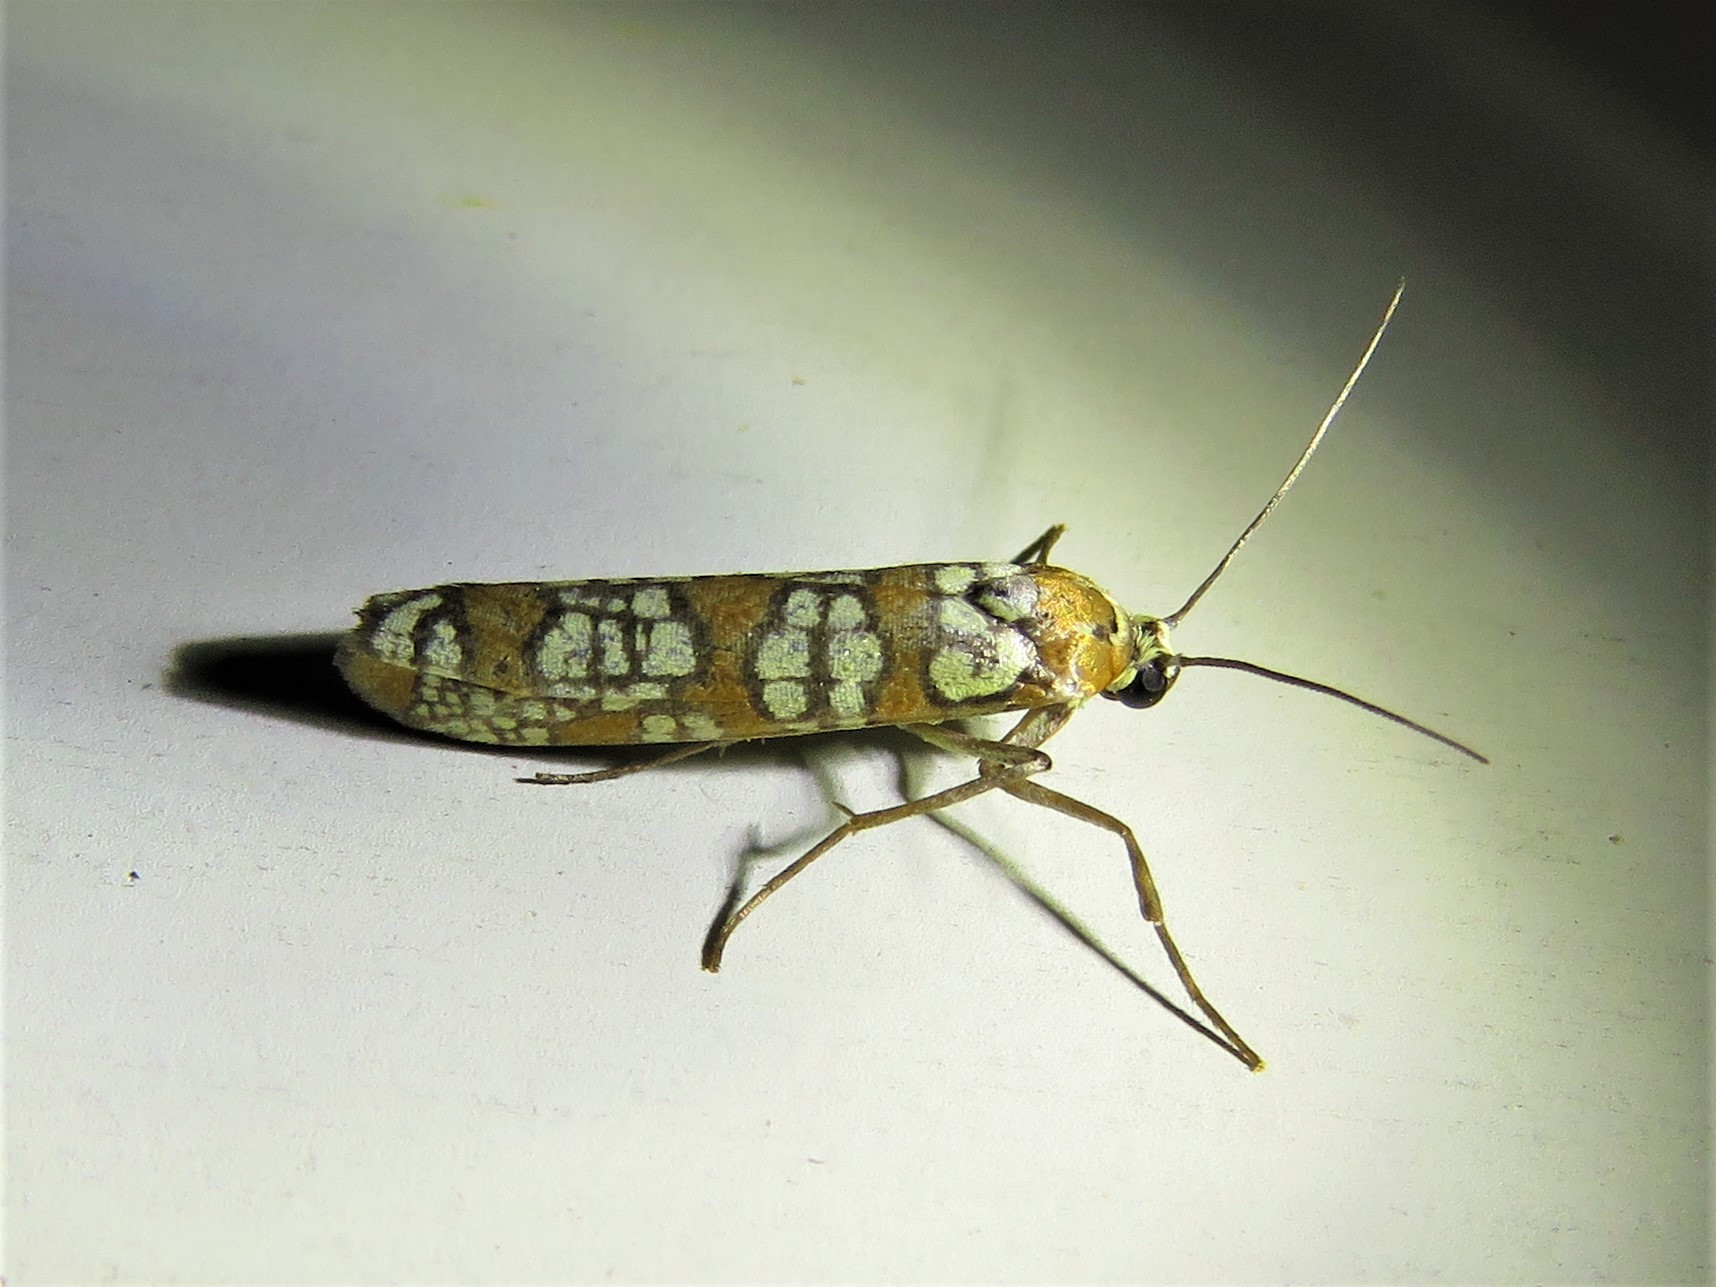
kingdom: Animalia
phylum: Arthropoda
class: Insecta
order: Lepidoptera
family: Attevidae
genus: Atteva
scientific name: Atteva punctella
